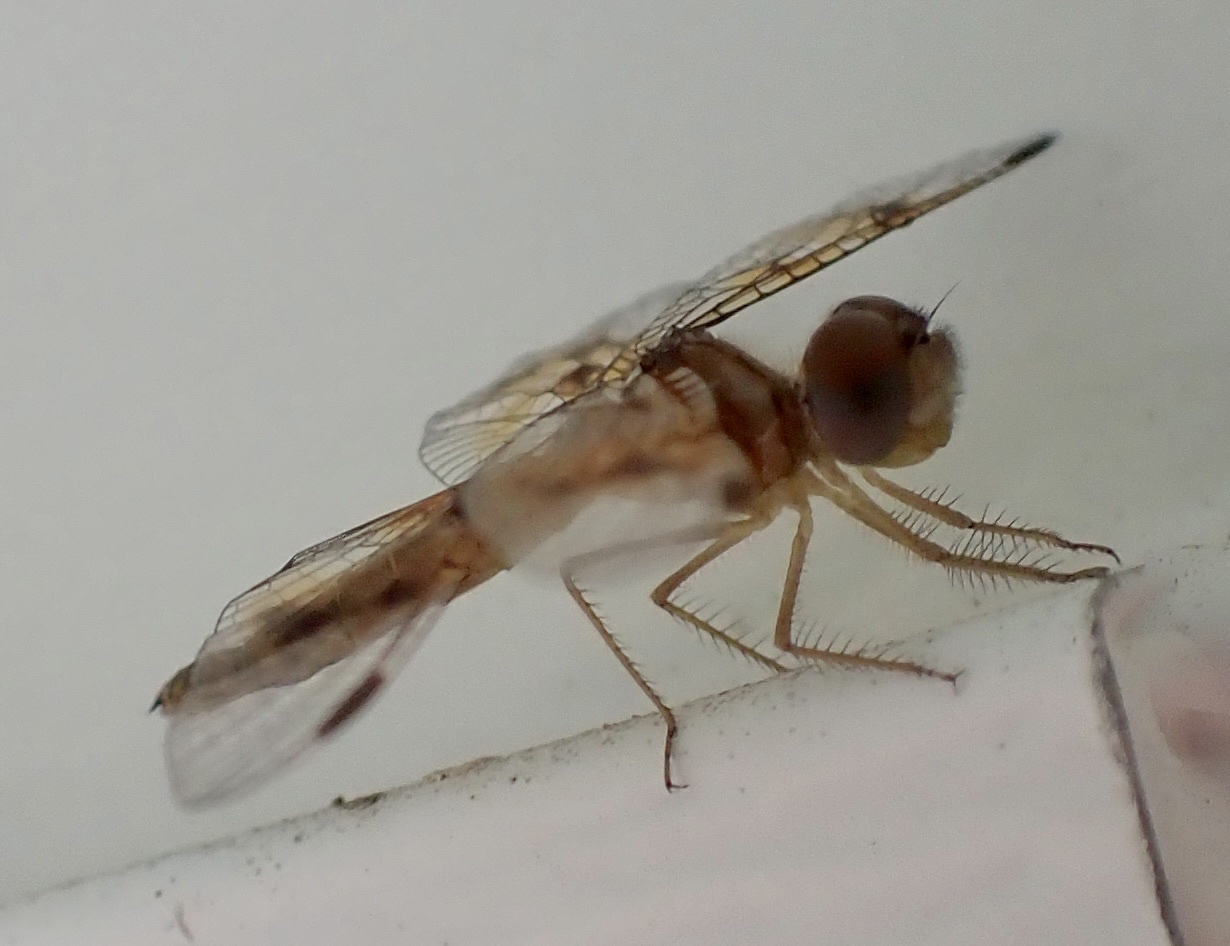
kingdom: Animalia
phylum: Arthropoda
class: Insecta
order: Odonata
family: Libellulidae
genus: Perithemis
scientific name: Perithemis tenera
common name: Eastern amberwing
